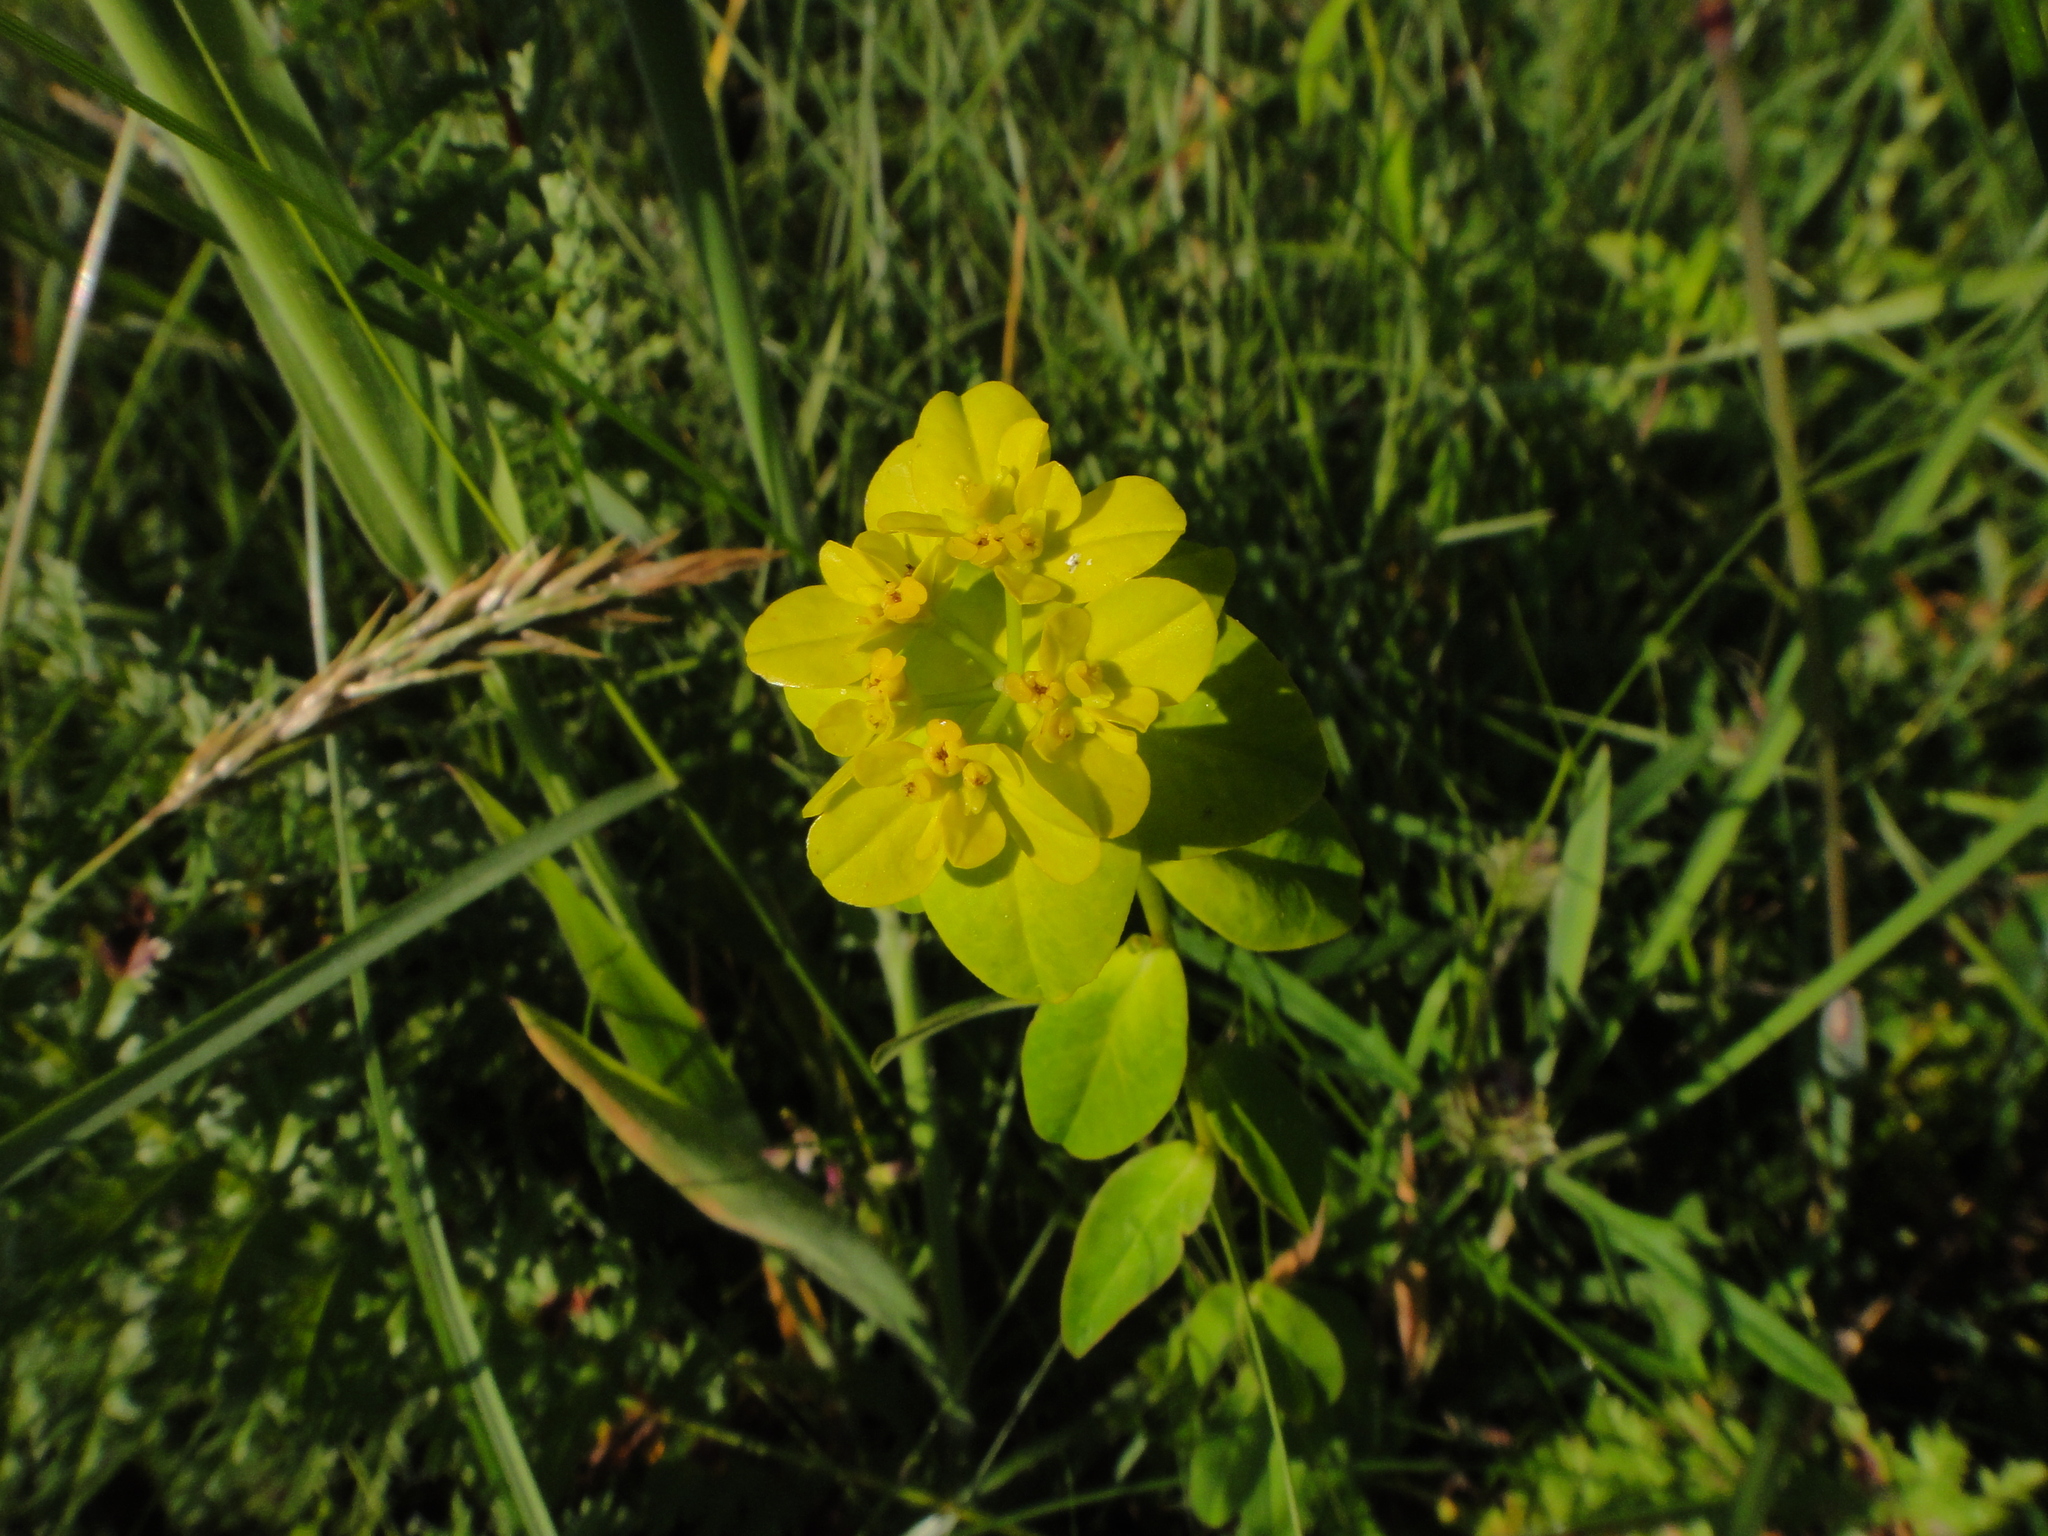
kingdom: Plantae
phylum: Tracheophyta
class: Magnoliopsida
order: Malpighiales
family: Euphorbiaceae
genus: Euphorbia
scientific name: Euphorbia verrucosa
